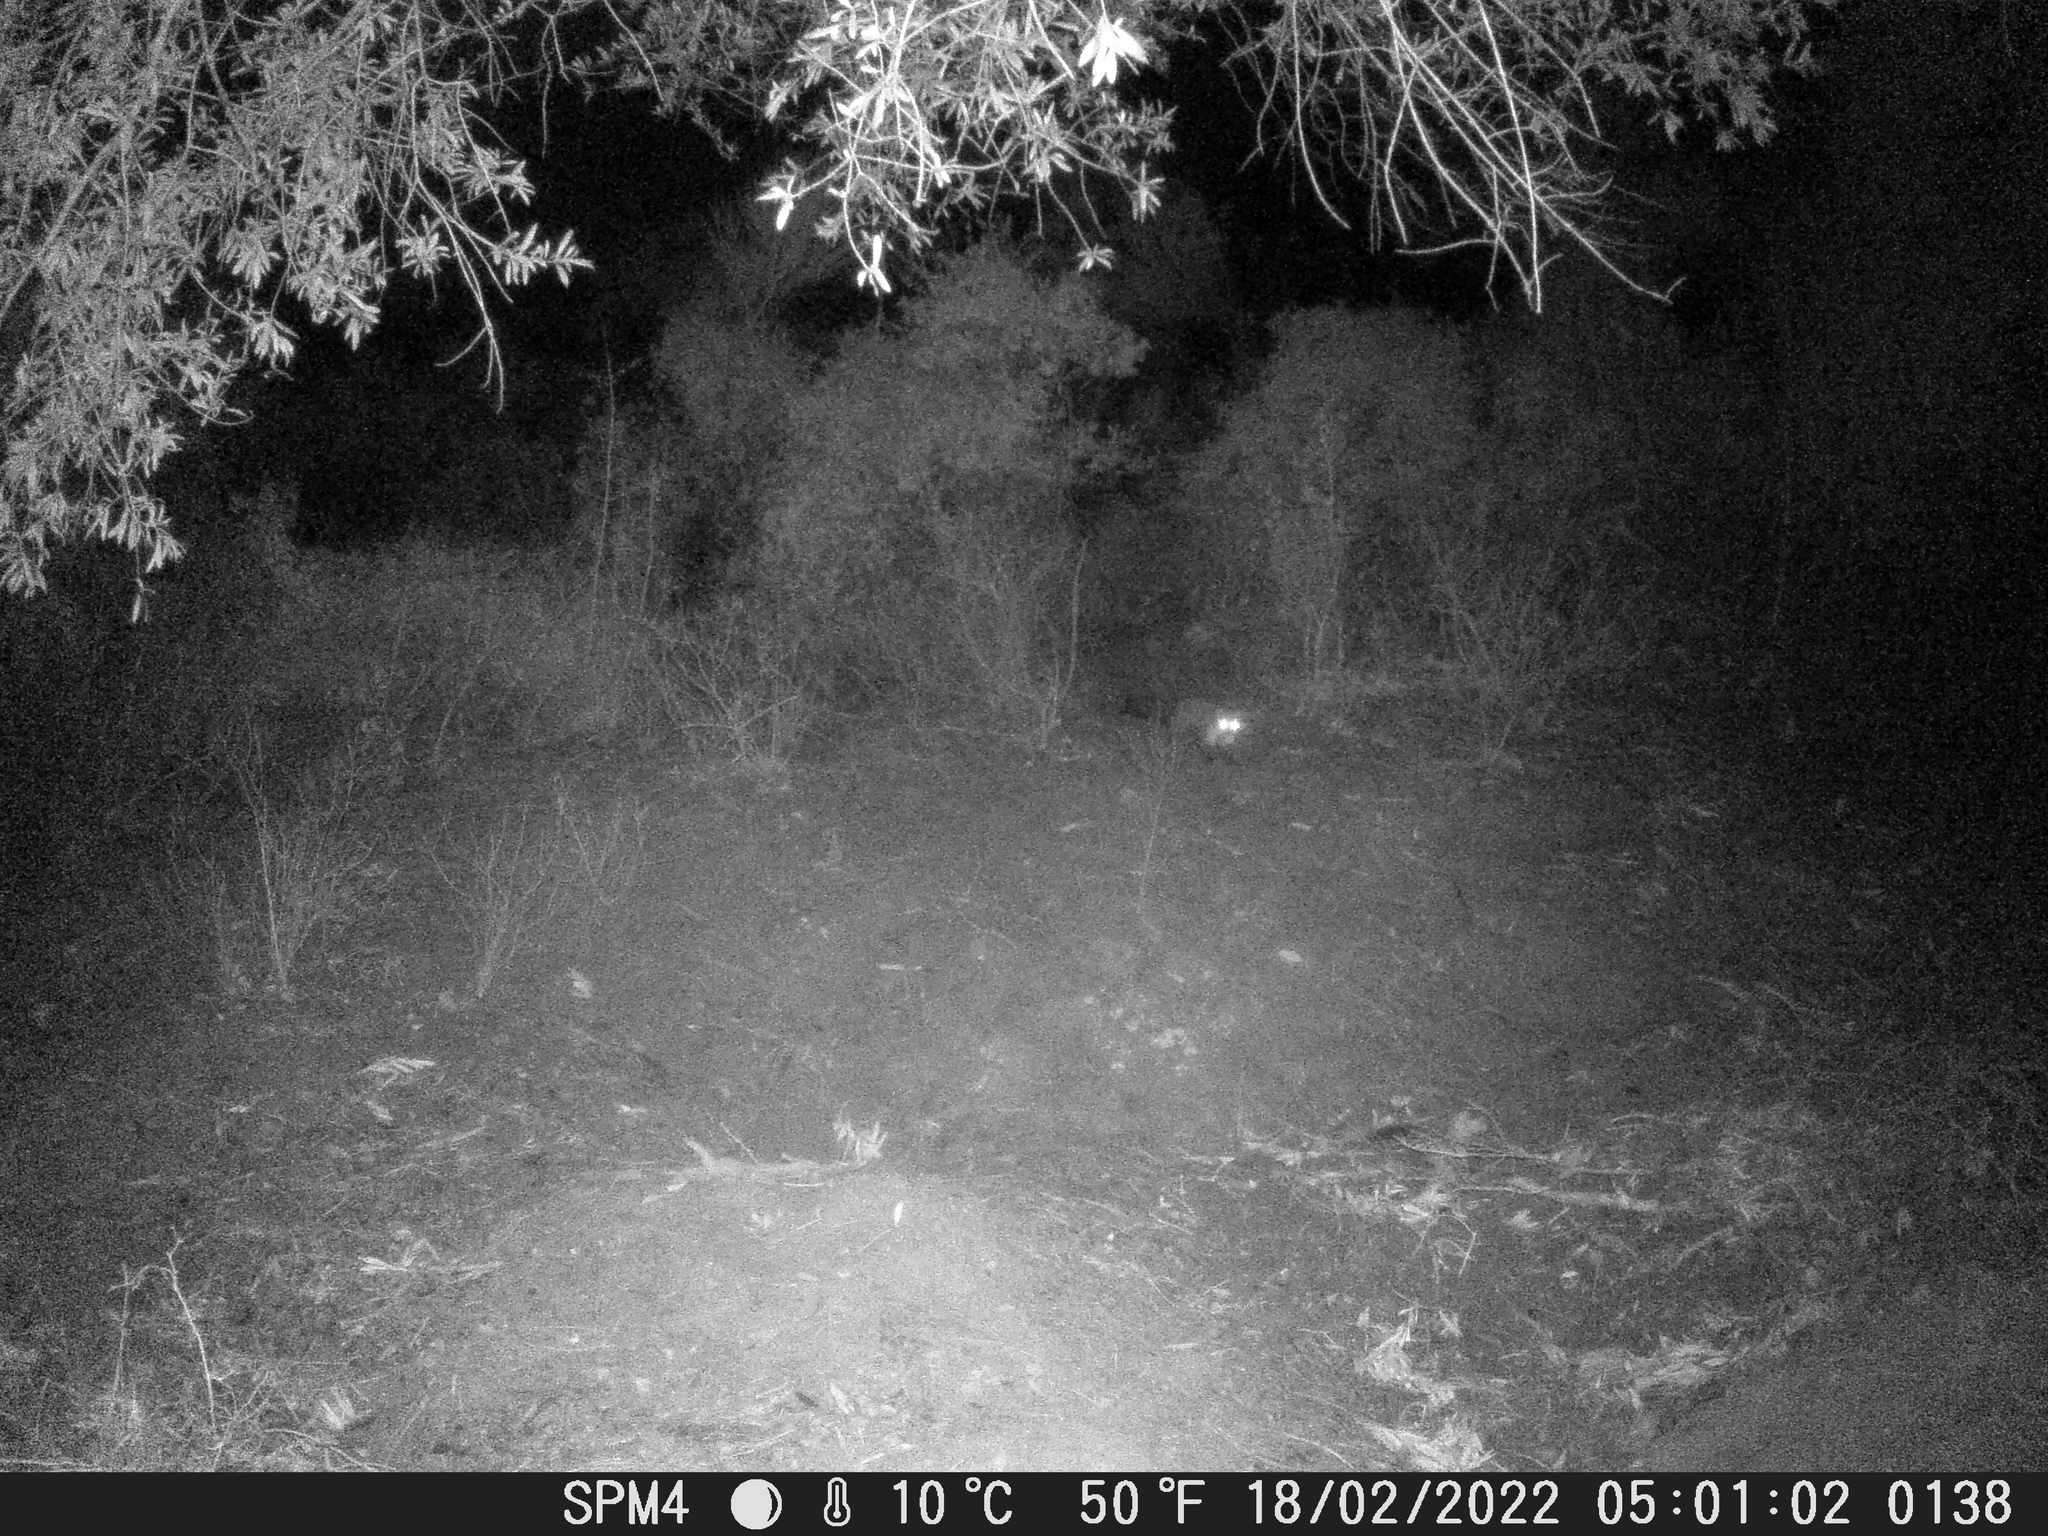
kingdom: Animalia
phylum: Chordata
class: Mammalia
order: Carnivora
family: Mustelidae
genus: Martes
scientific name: Martes foina
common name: Beech marten
